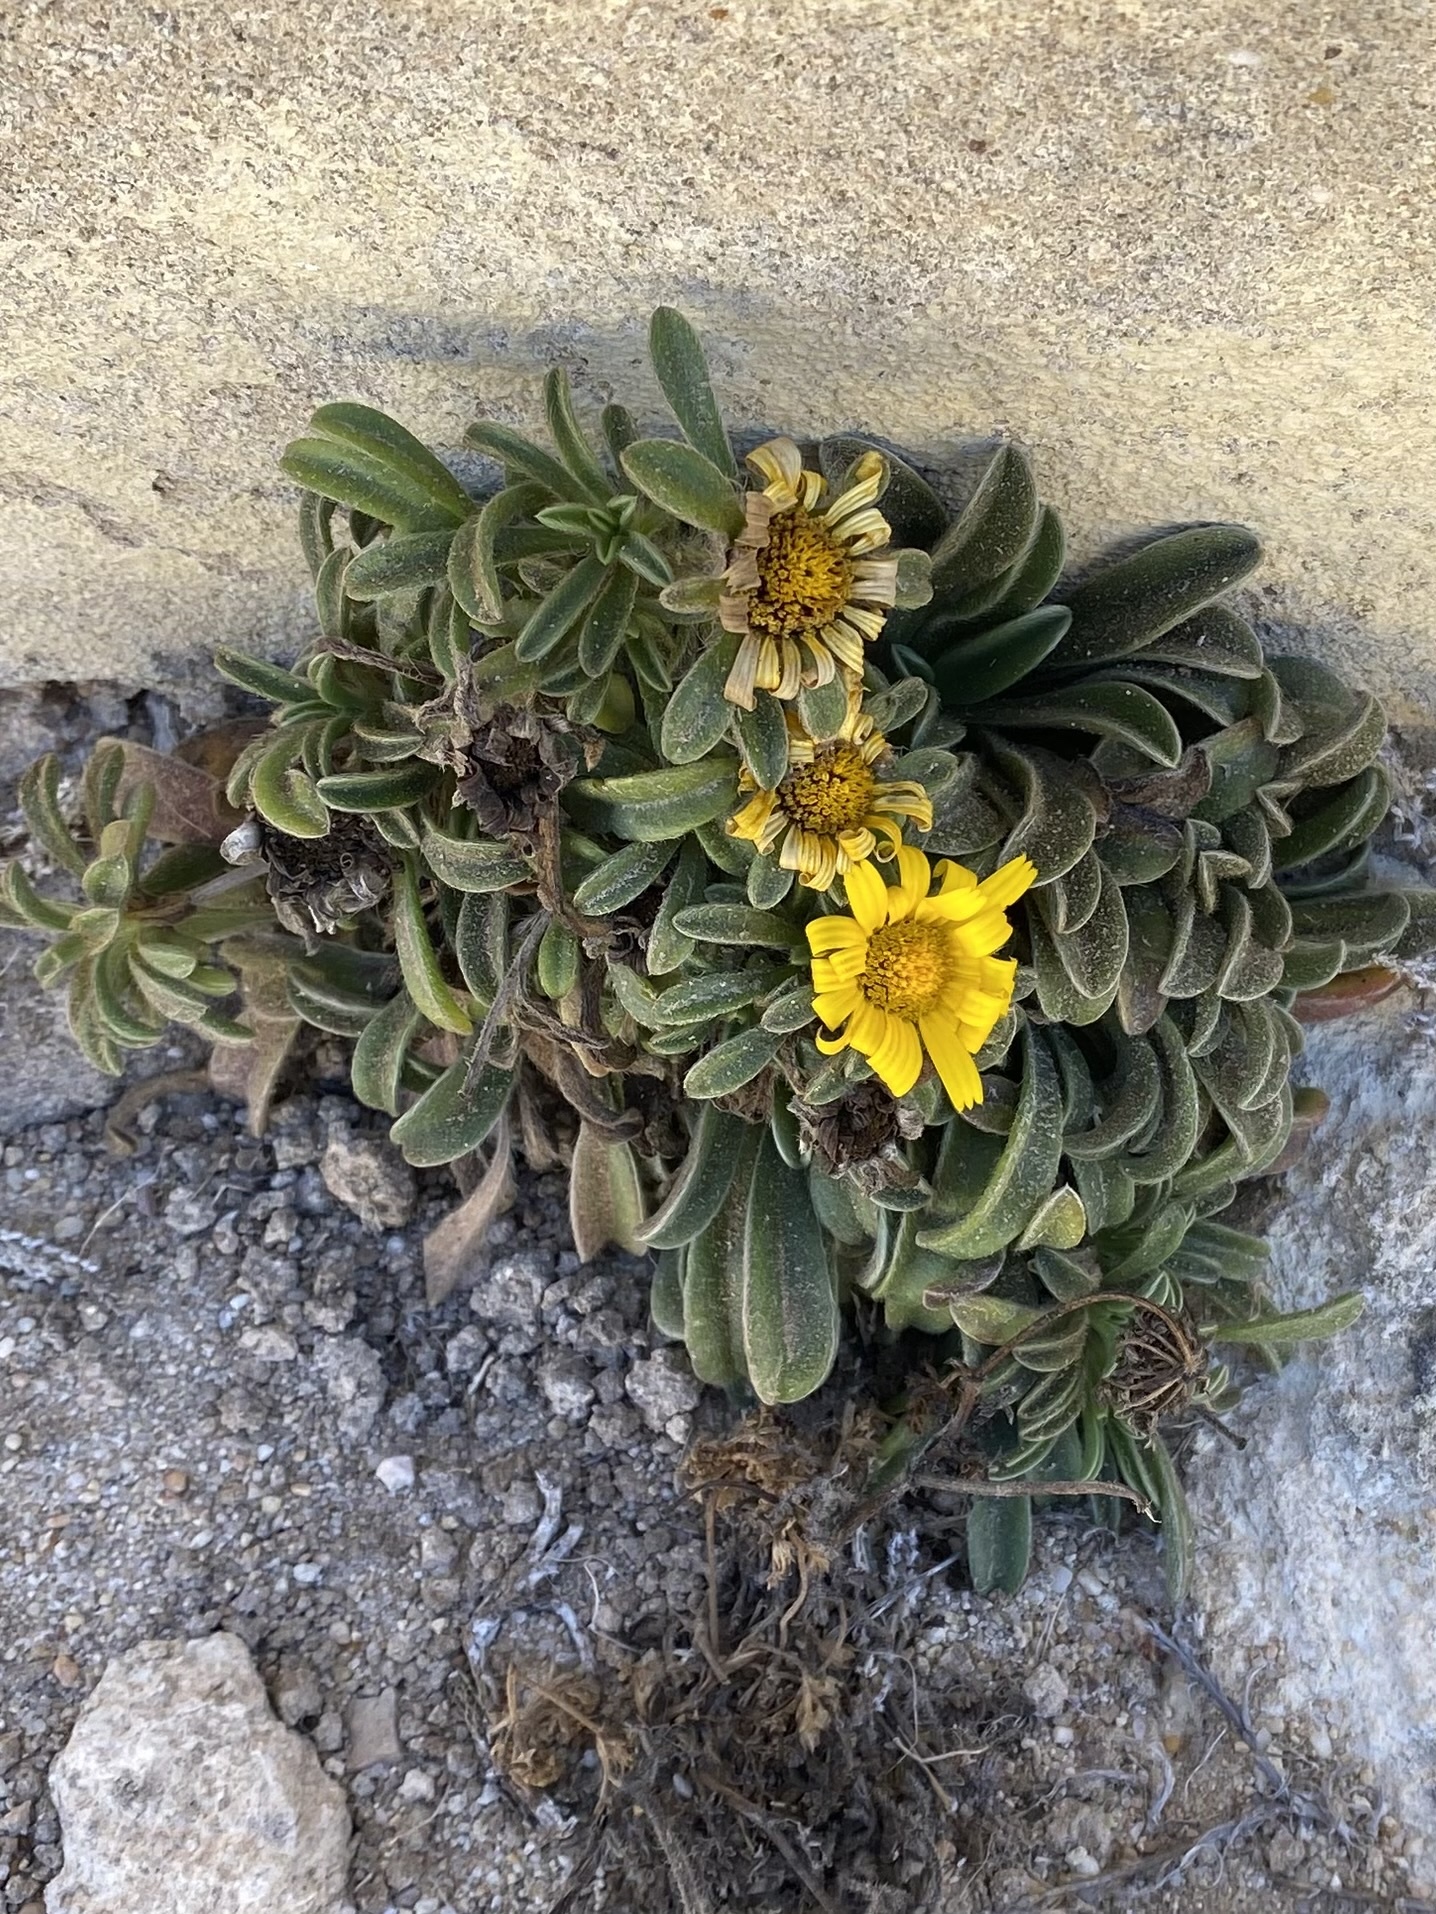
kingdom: Plantae
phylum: Tracheophyta
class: Magnoliopsida
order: Asterales
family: Asteraceae
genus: Pallenis
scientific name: Pallenis maritima
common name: Golden coin daisy
